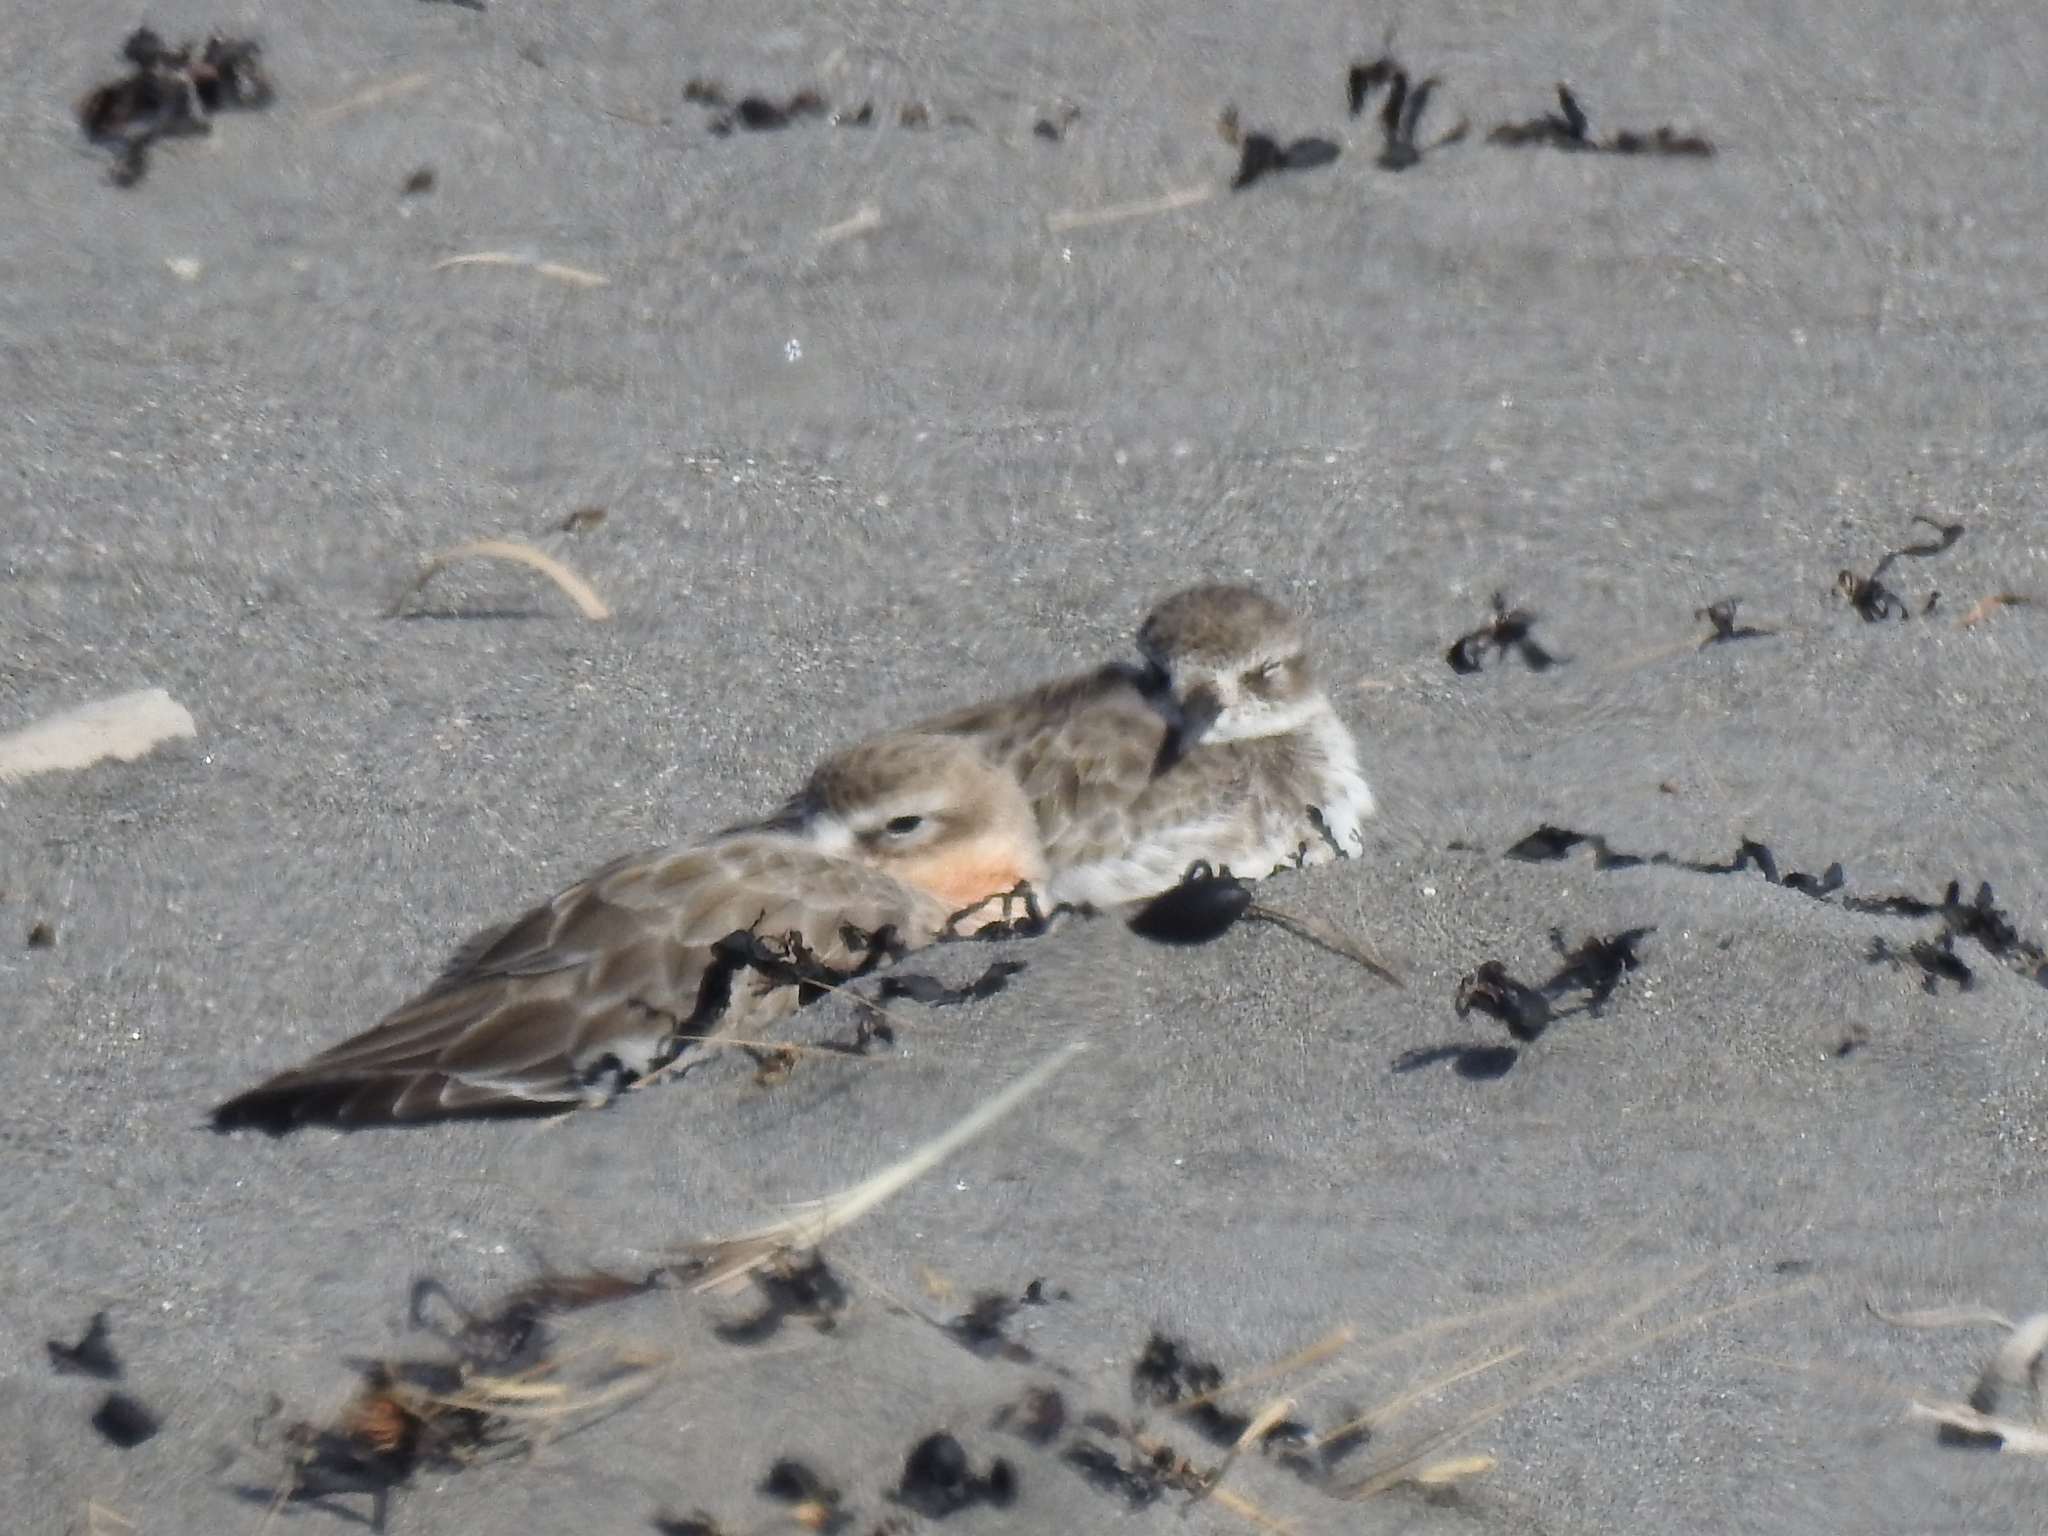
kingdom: Animalia
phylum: Chordata
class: Aves
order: Charadriiformes
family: Charadriidae
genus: Anarhynchus
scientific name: Anarhynchus
